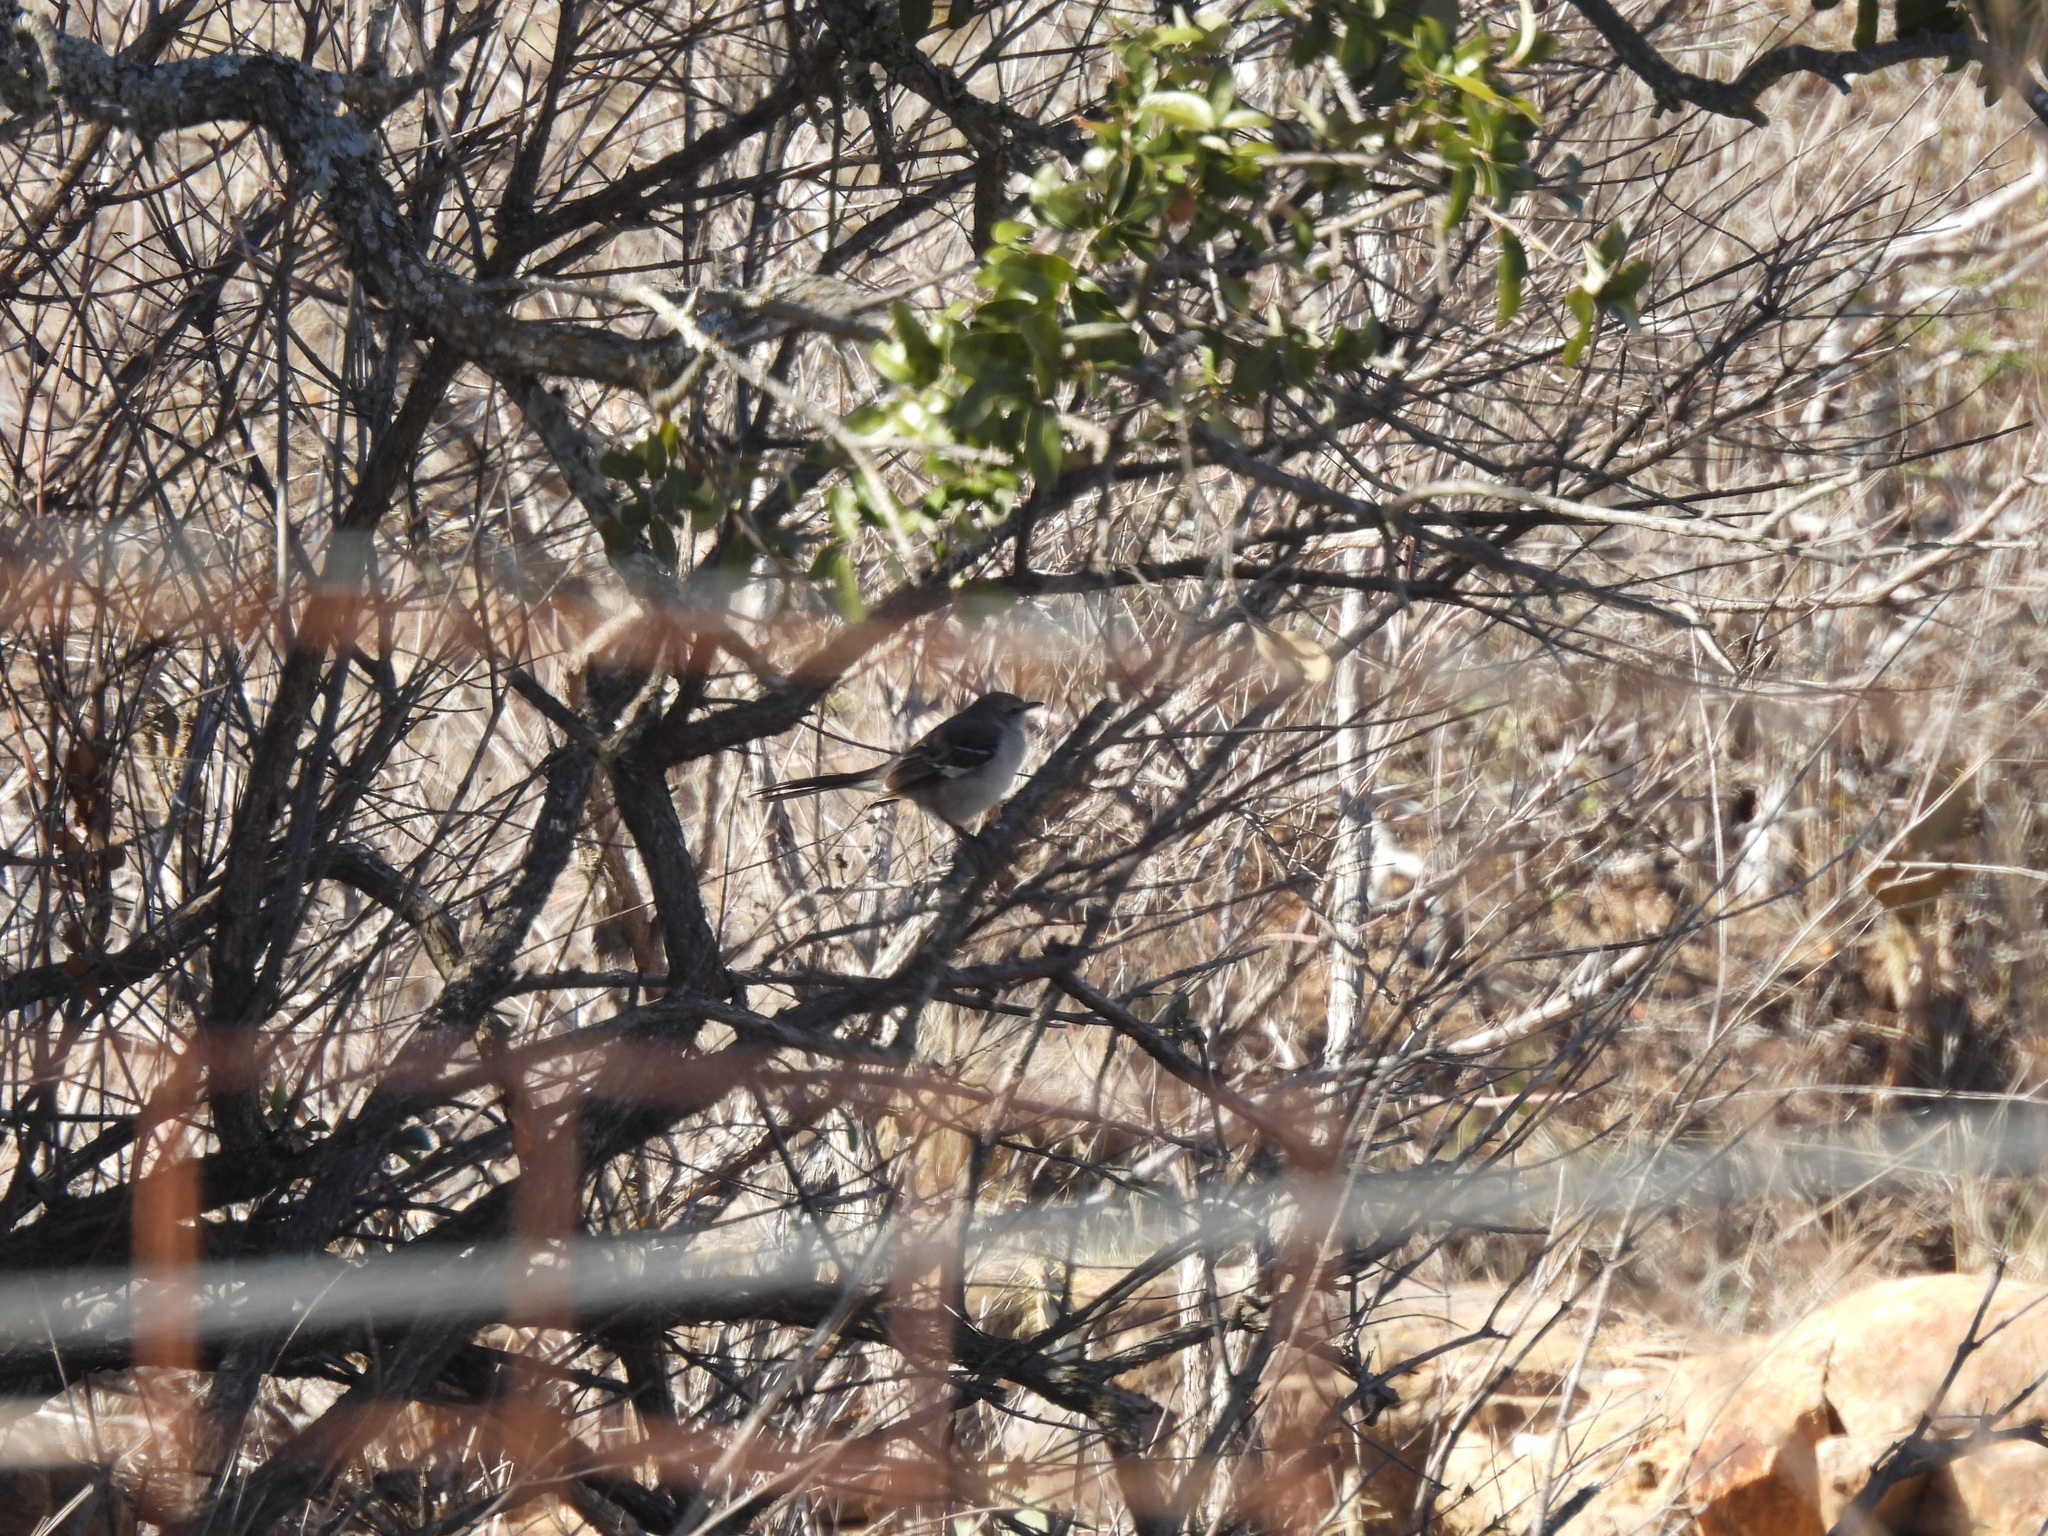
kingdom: Animalia
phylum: Chordata
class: Aves
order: Passeriformes
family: Mimidae
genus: Mimus
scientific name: Mimus polyglottos
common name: Northern mockingbird
